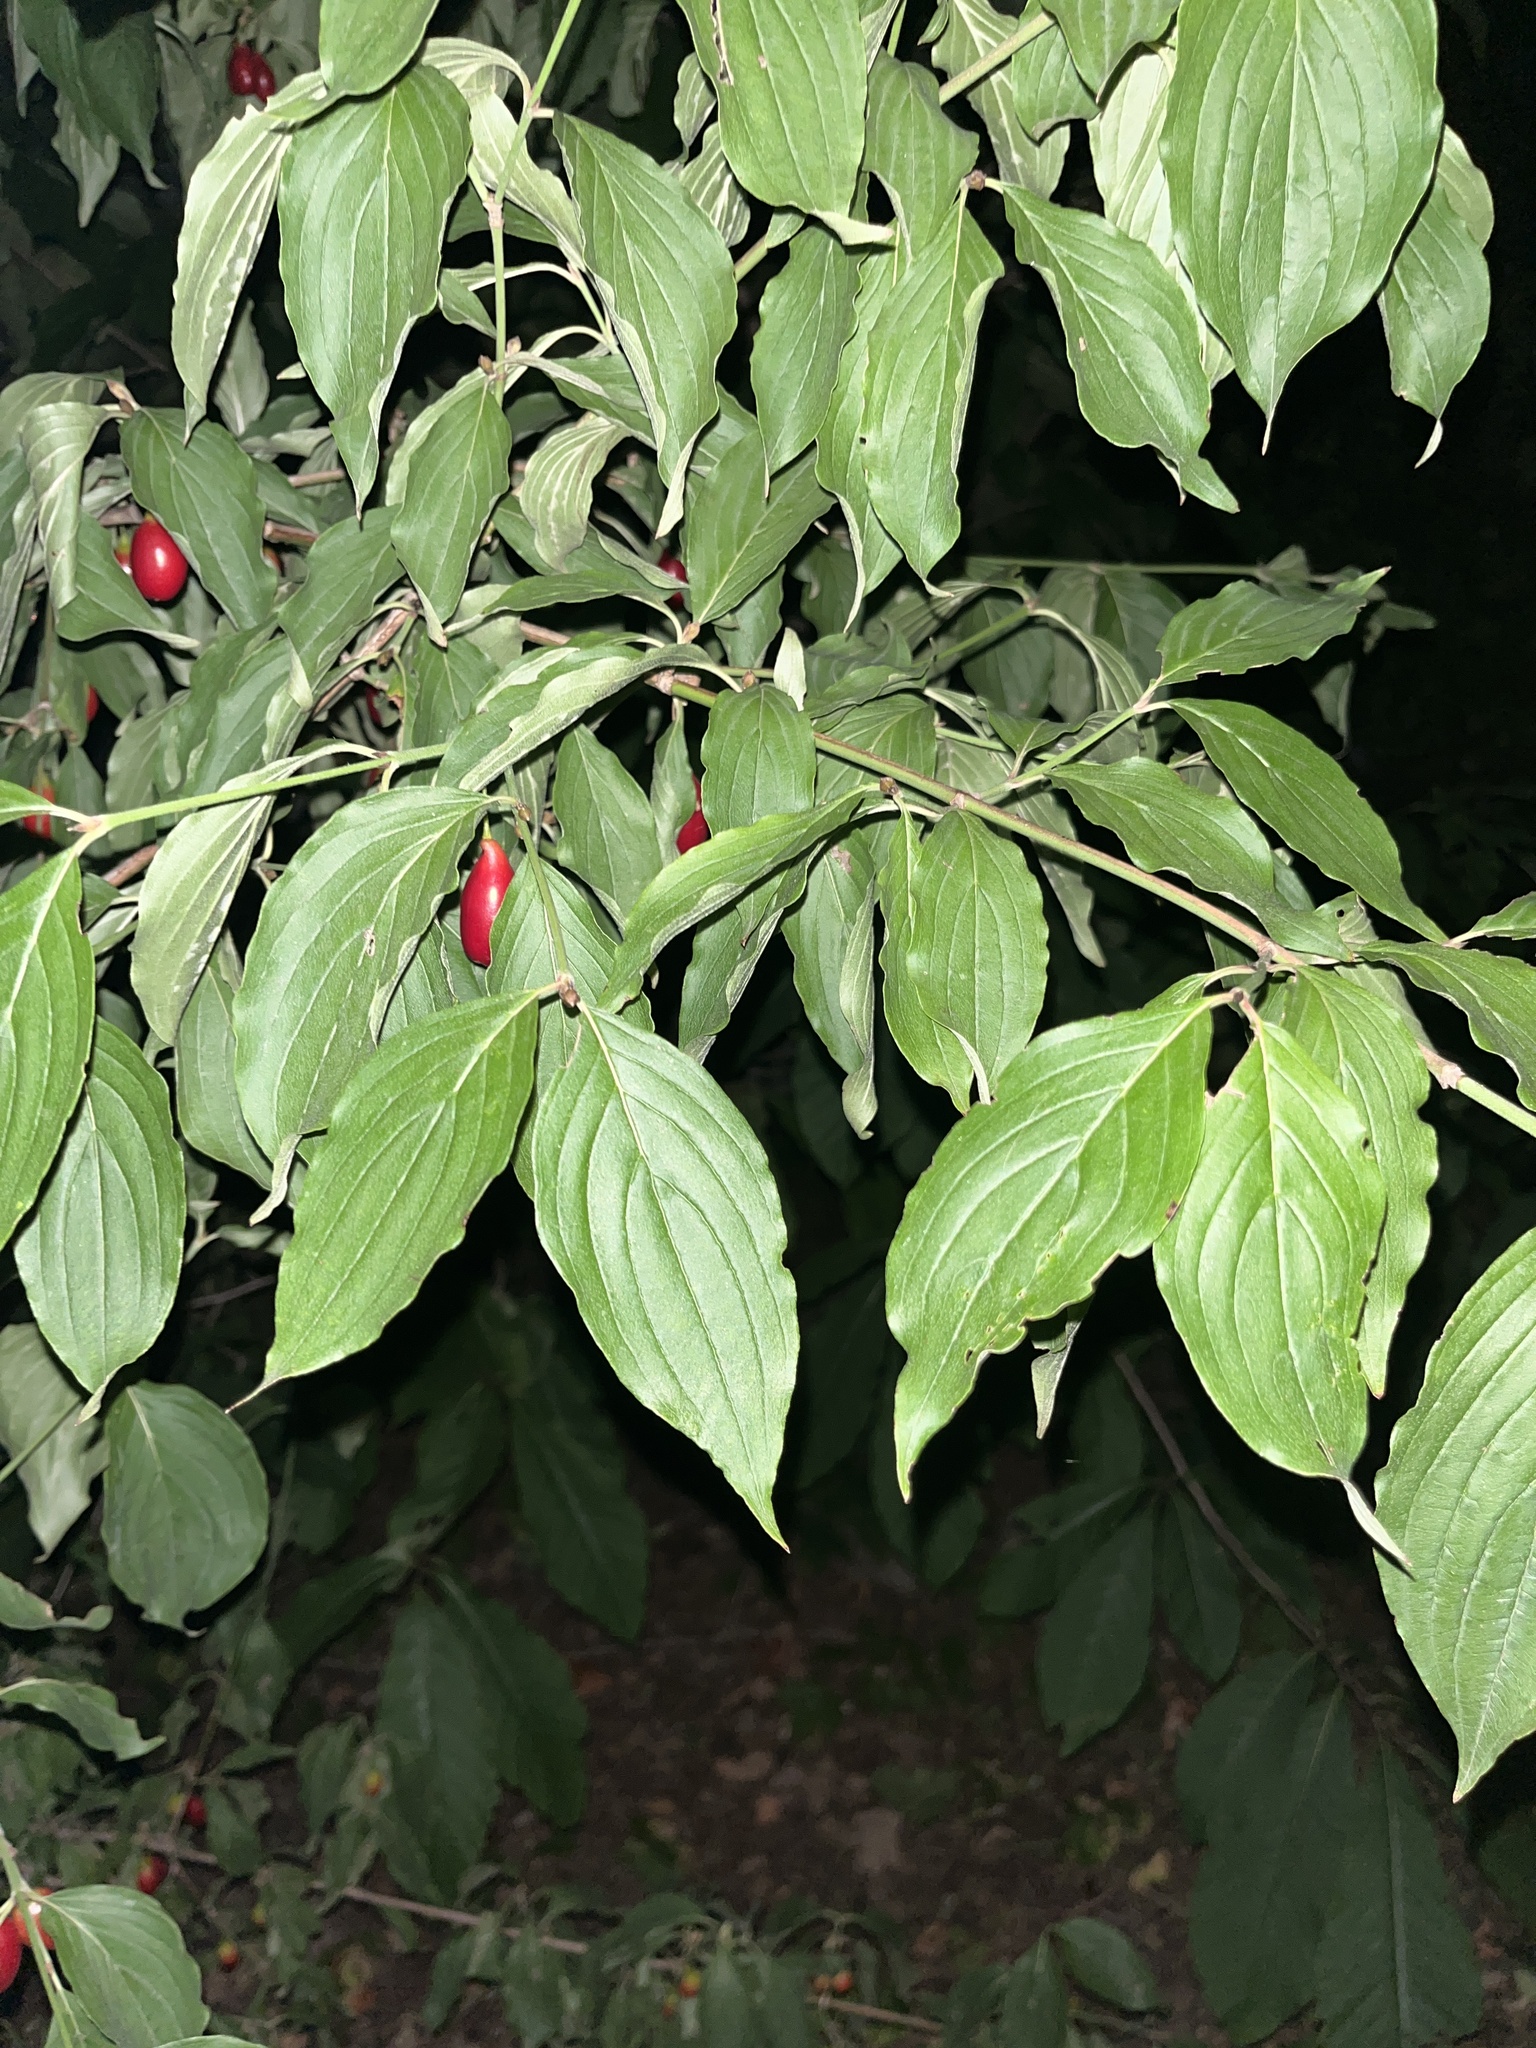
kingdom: Plantae
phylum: Tracheophyta
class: Magnoliopsida
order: Cornales
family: Cornaceae
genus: Cornus
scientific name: Cornus
